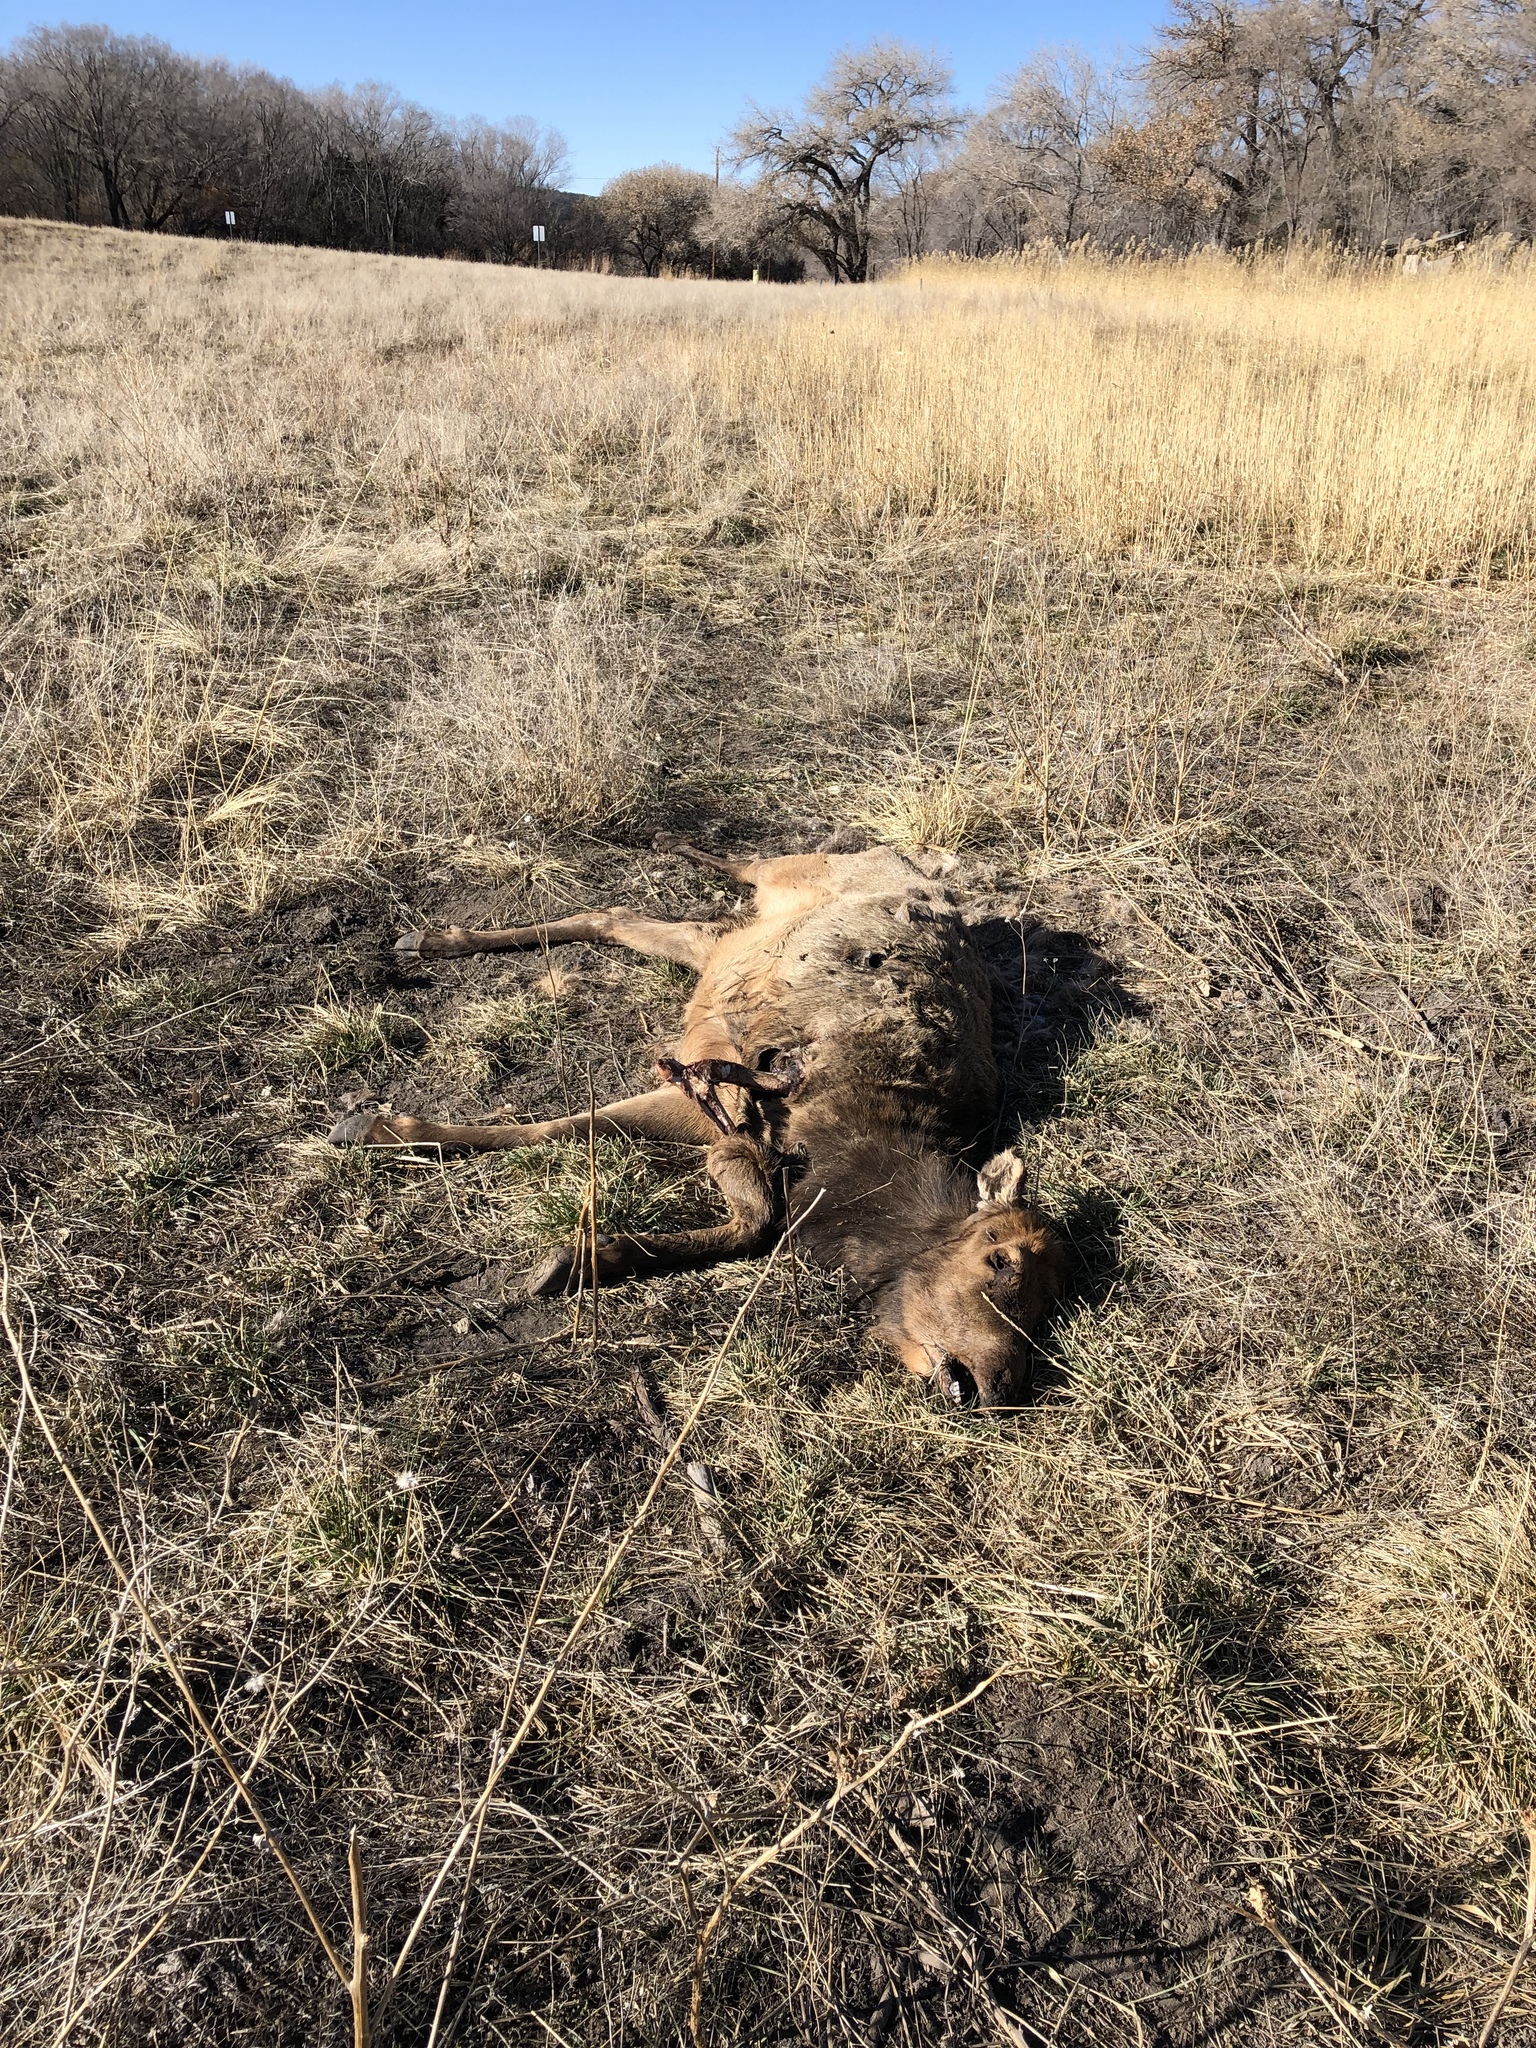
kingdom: Animalia
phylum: Chordata
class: Mammalia
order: Artiodactyla
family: Cervidae
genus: Cervus
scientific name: Cervus elaphus
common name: Red deer
